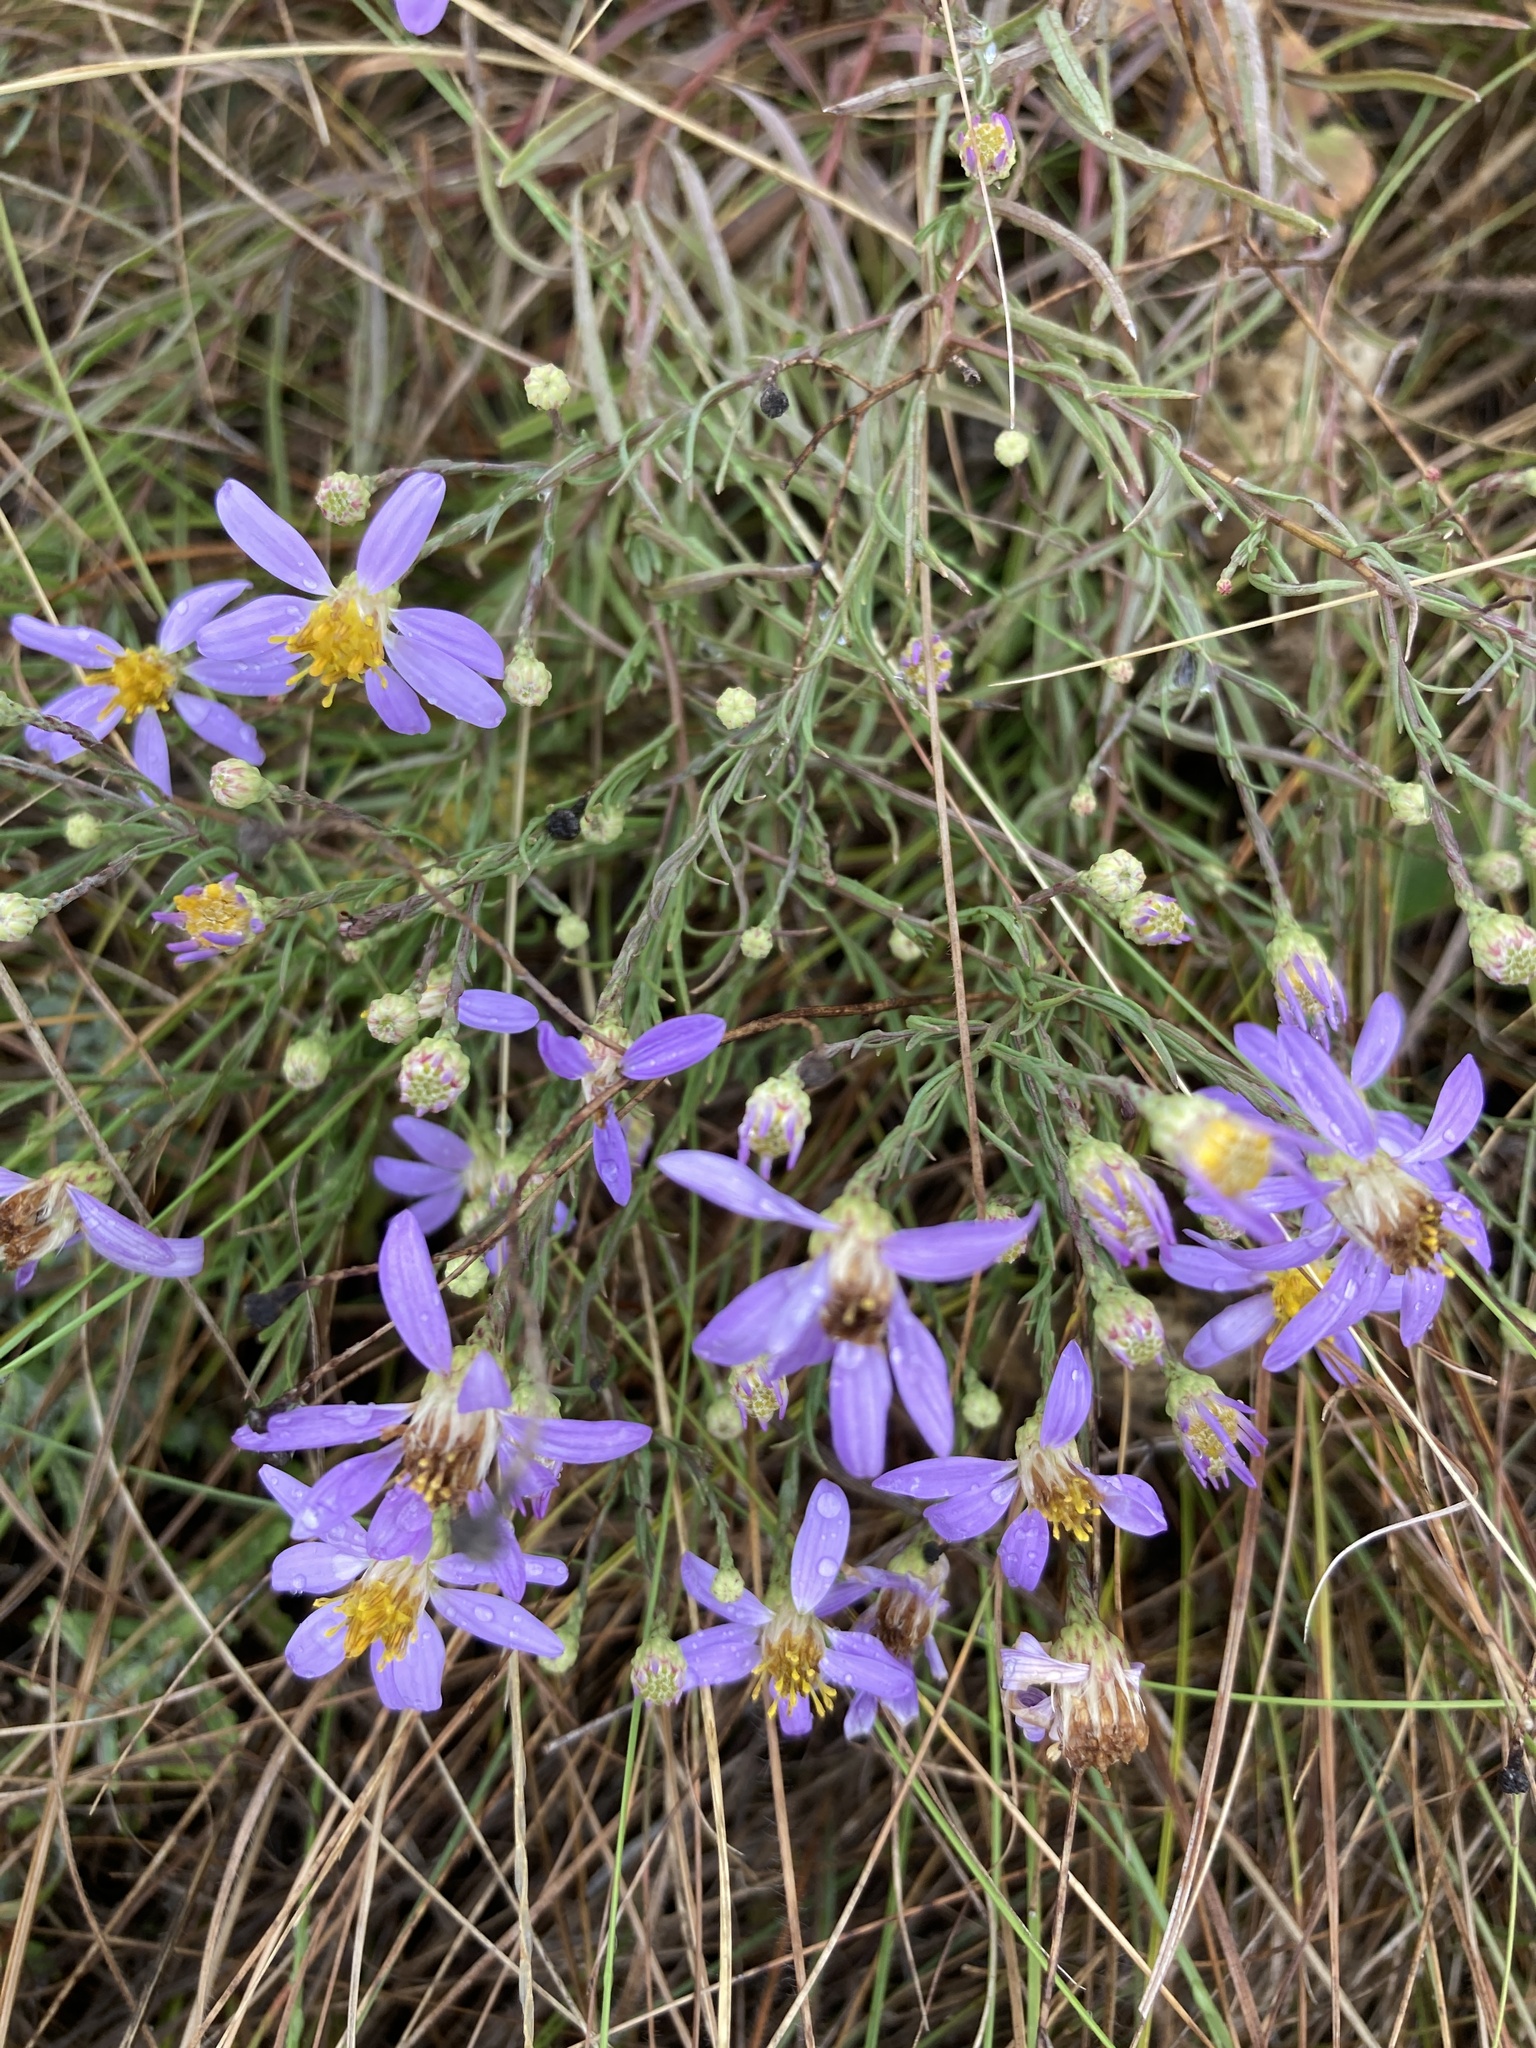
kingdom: Plantae
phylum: Tracheophyta
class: Magnoliopsida
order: Asterales
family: Asteraceae
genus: Galatella
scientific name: Galatella angustissima
